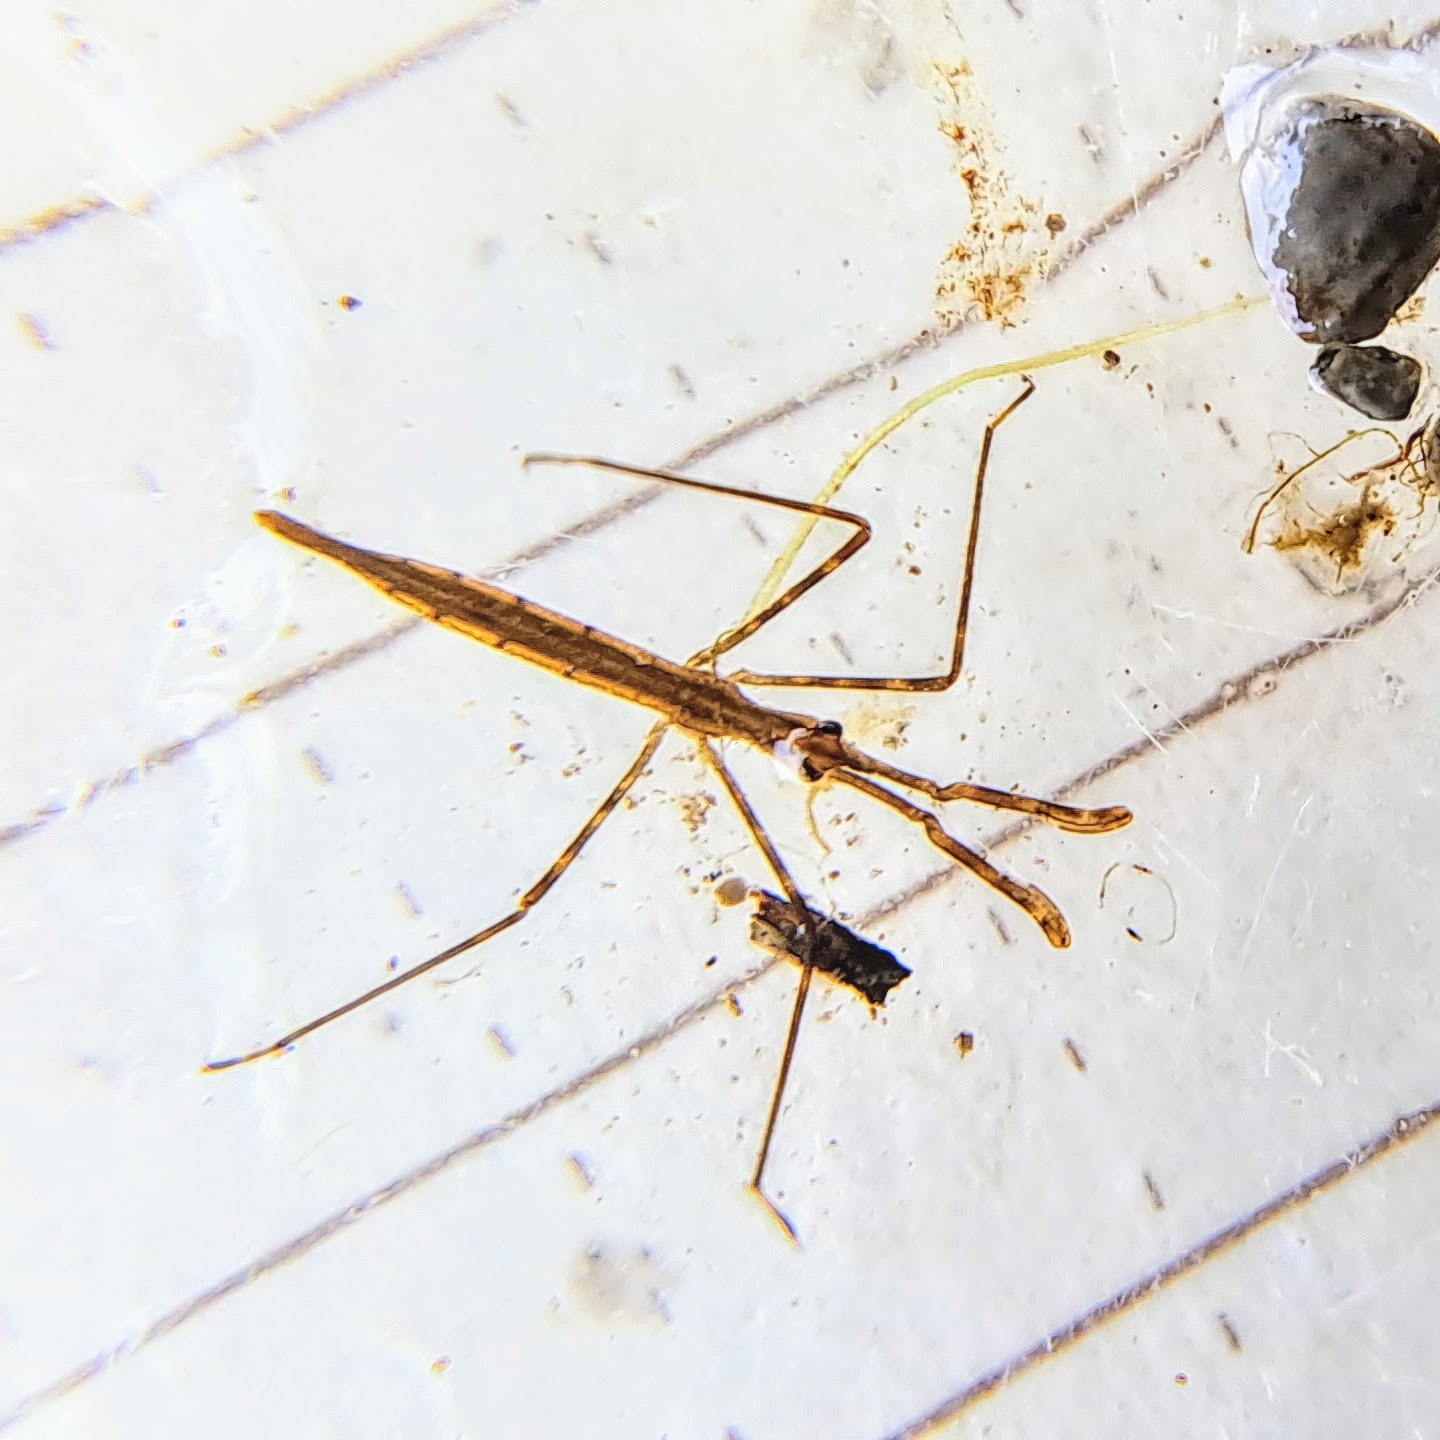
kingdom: Animalia
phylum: Arthropoda
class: Insecta
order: Hemiptera
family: Nepidae
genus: Ranatra
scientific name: Ranatra
